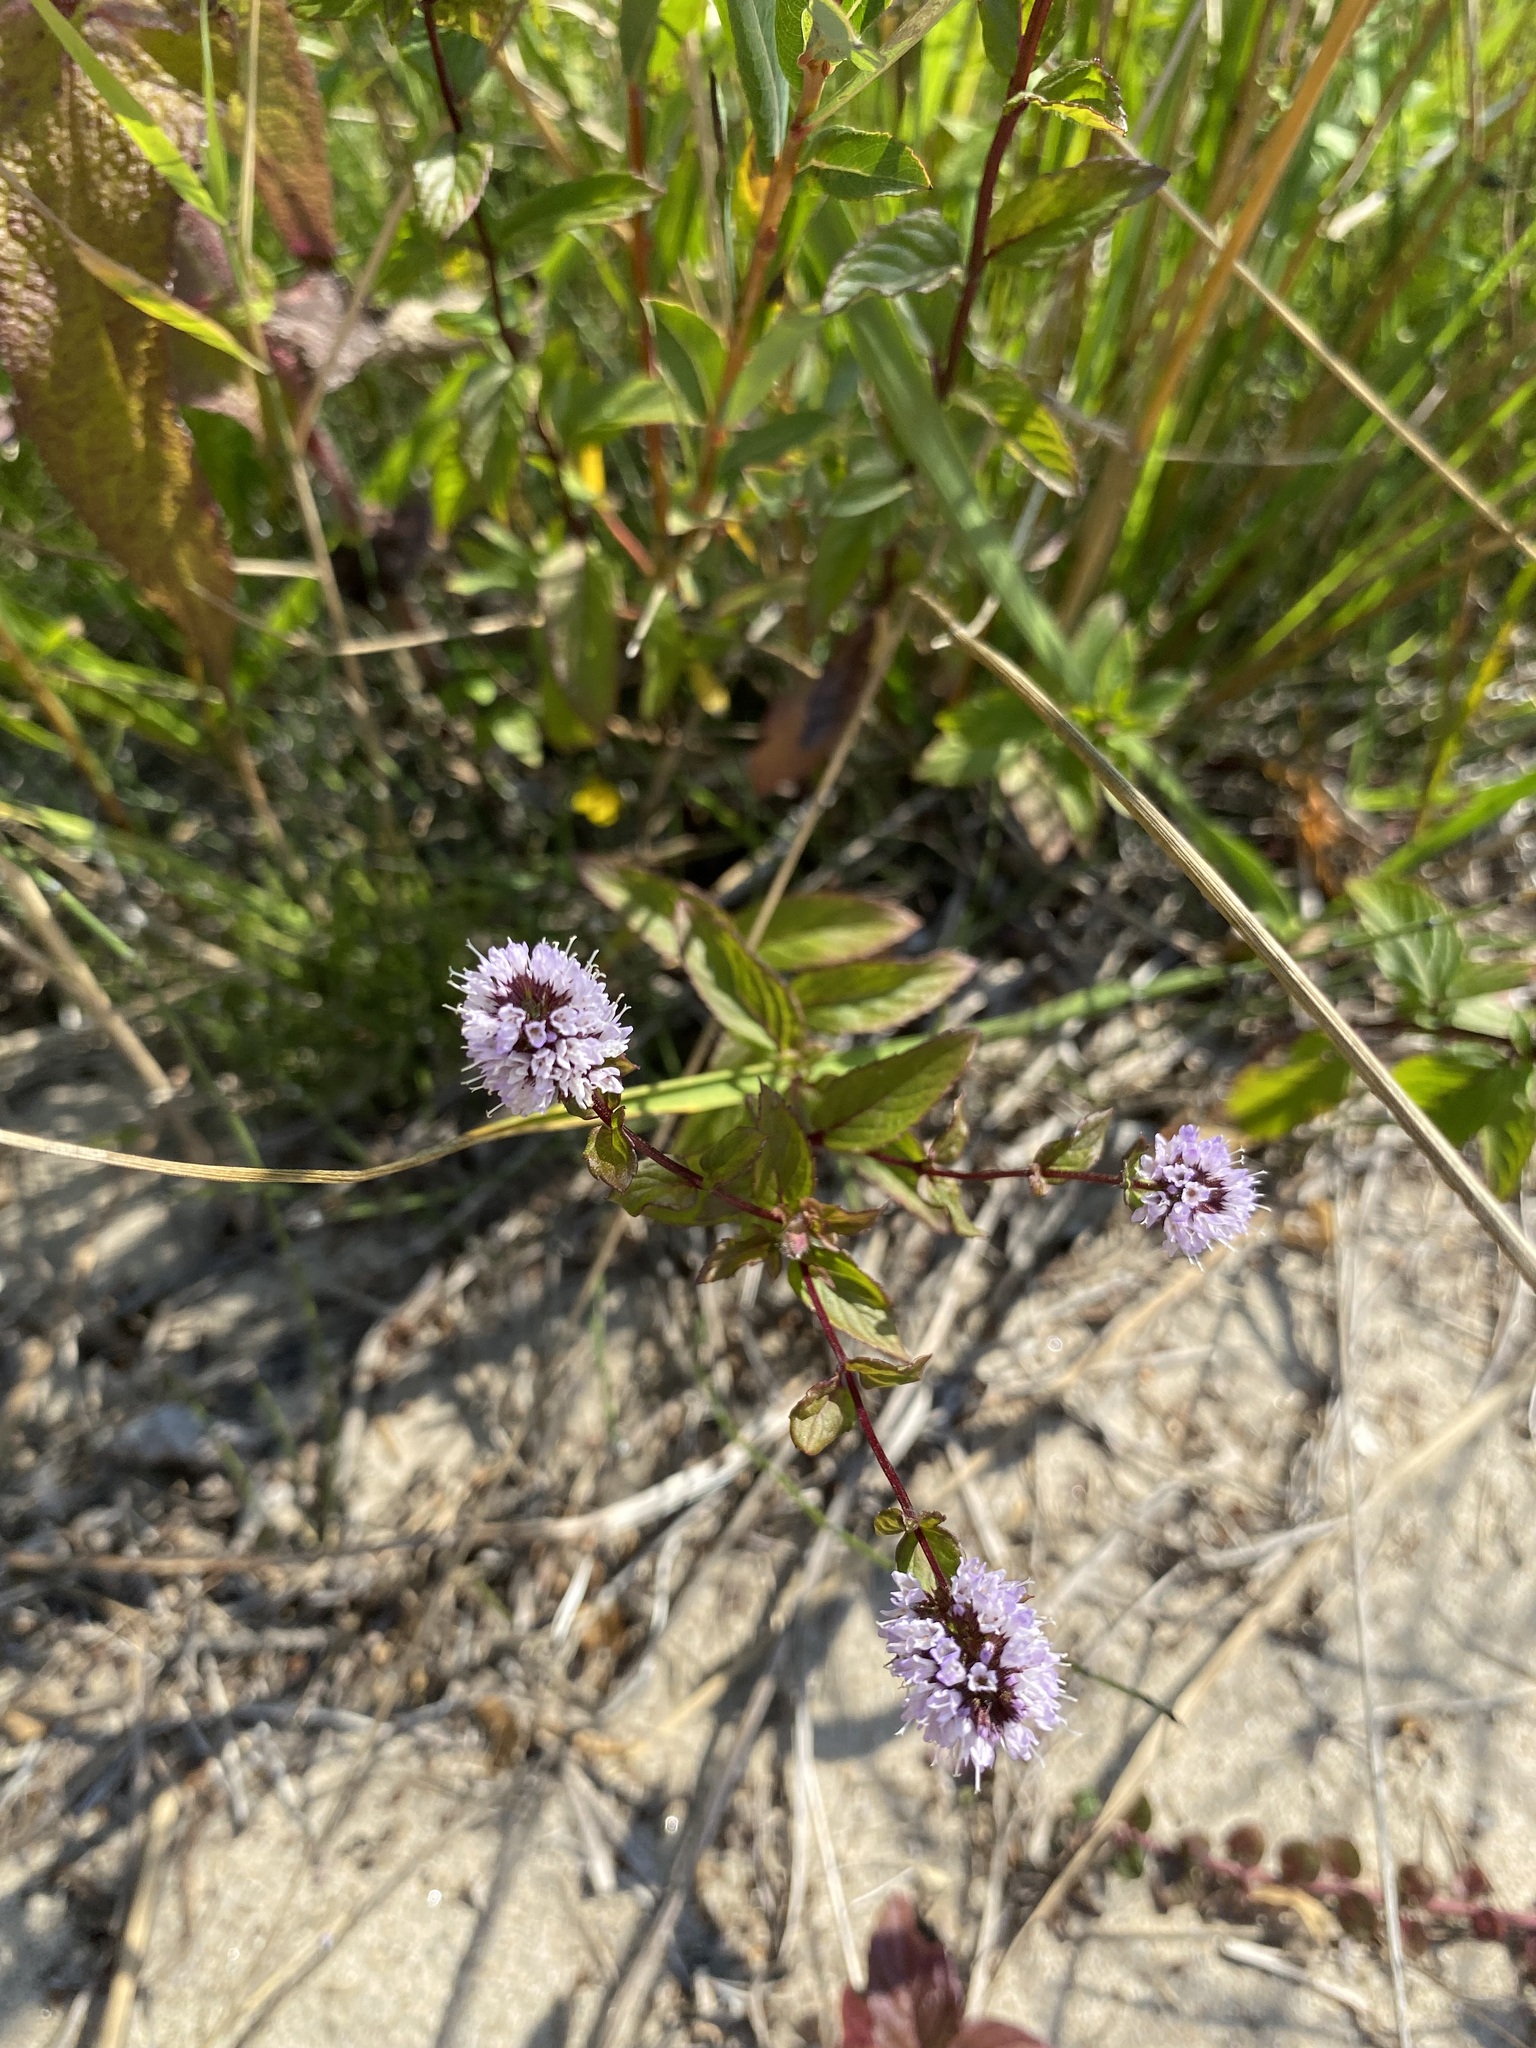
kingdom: Plantae
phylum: Tracheophyta
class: Magnoliopsida
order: Lamiales
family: Lamiaceae
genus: Mentha
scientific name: Mentha canadensis
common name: American corn mint
